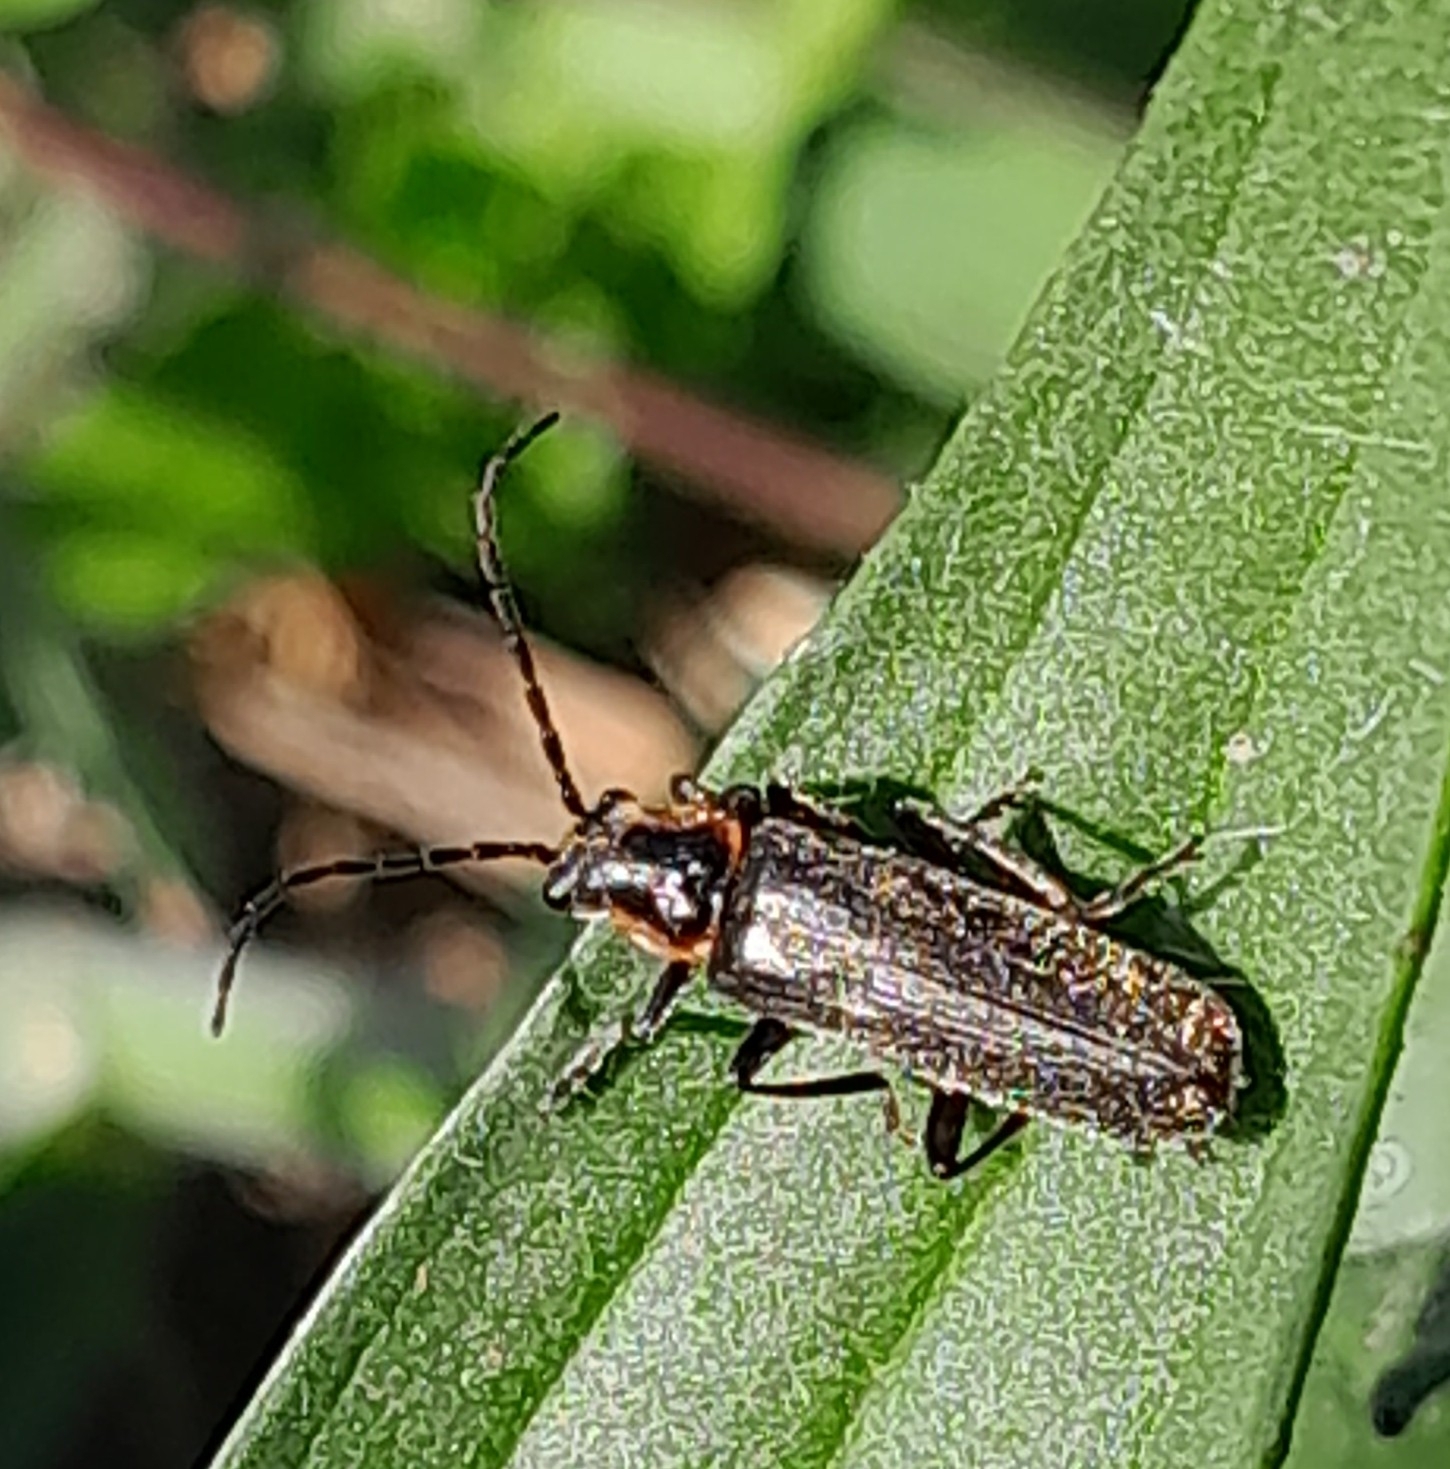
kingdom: Animalia
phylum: Arthropoda
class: Insecta
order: Coleoptera
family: Cantharidae
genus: Cantharis
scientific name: Cantharis pulicaria
